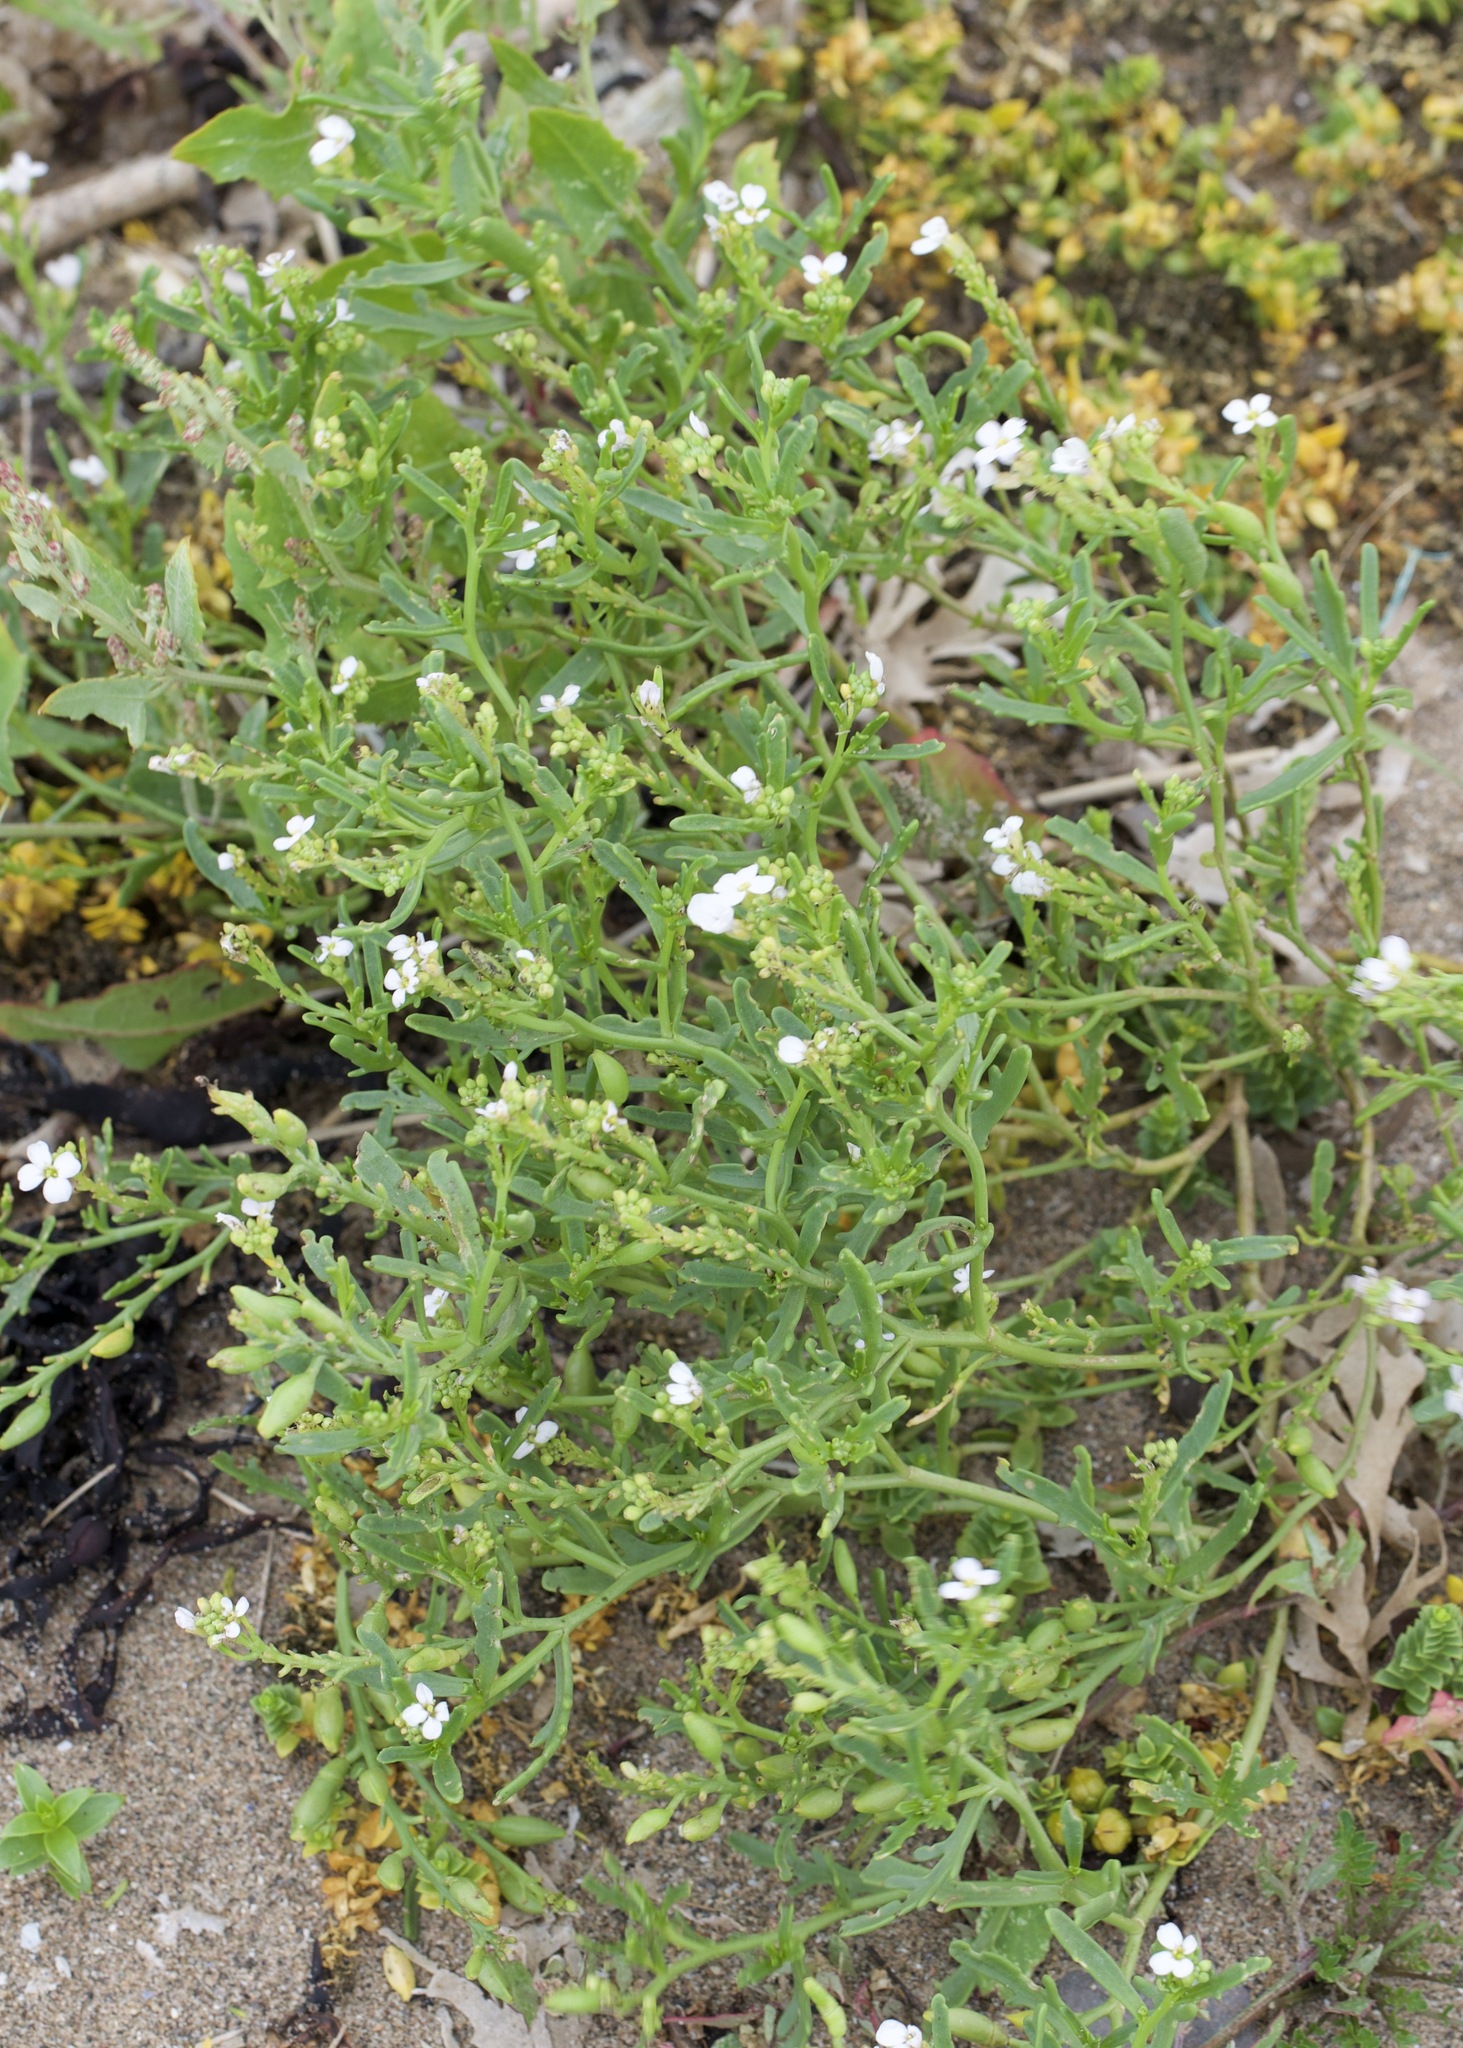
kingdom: Plantae
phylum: Tracheophyta
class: Magnoliopsida
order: Brassicales
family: Brassicaceae
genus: Cakile
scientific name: Cakile maritima
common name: Sea rocket
